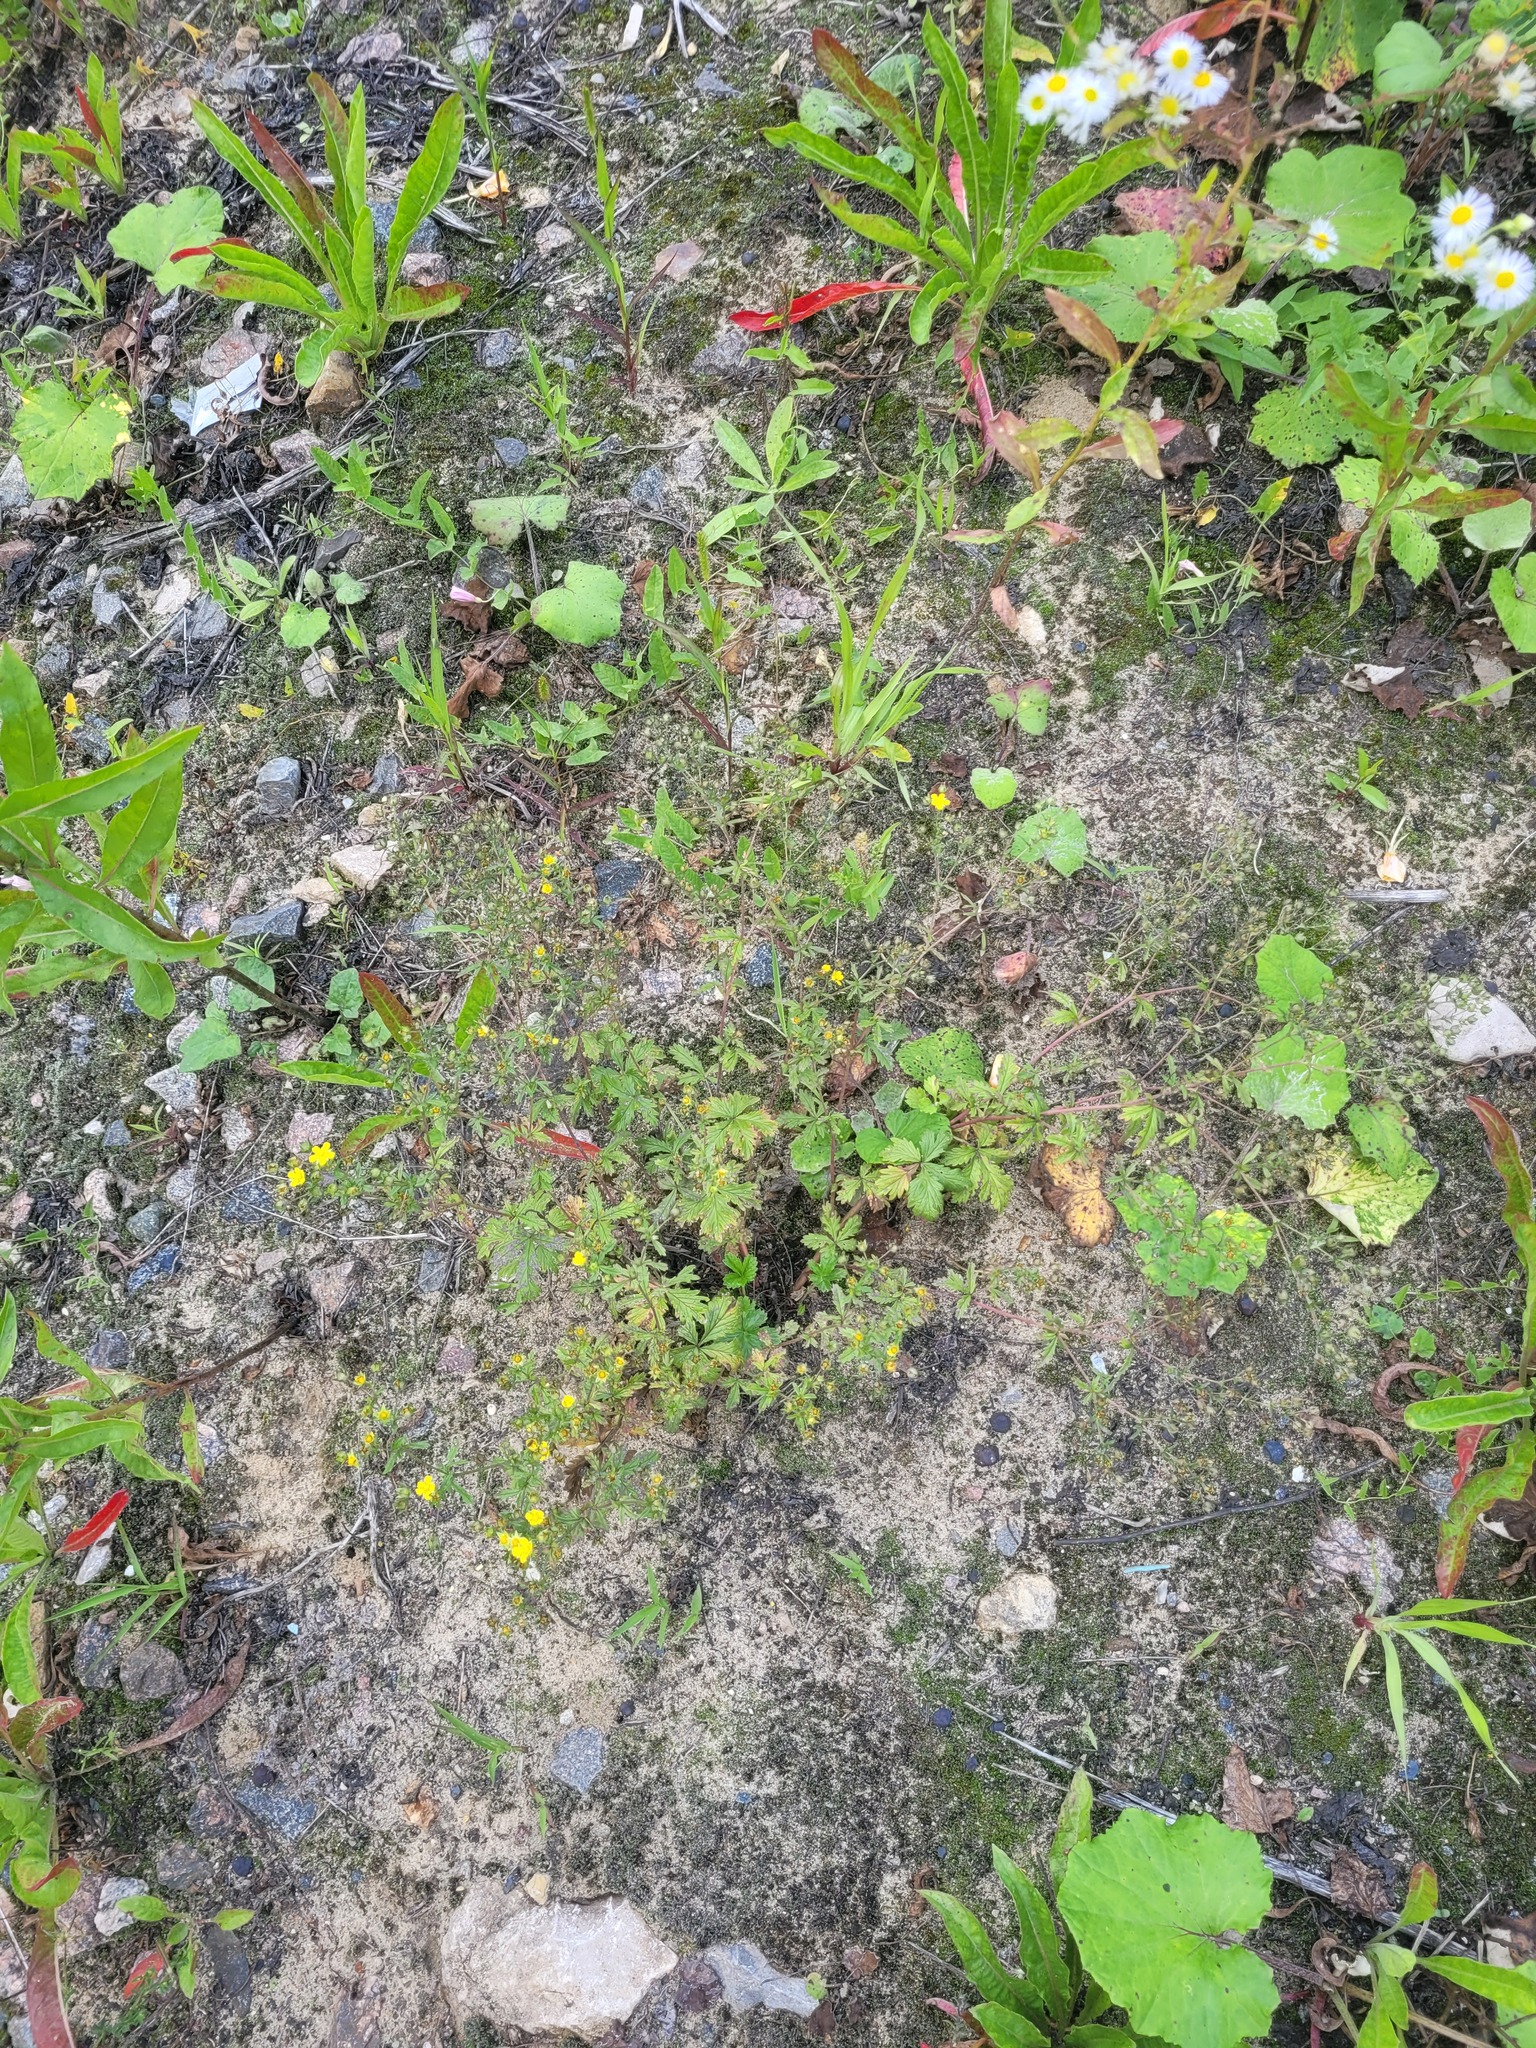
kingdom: Plantae
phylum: Tracheophyta
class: Magnoliopsida
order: Rosales
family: Rosaceae
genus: Potentilla
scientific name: Potentilla intermedia
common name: Downy cinquefoil
